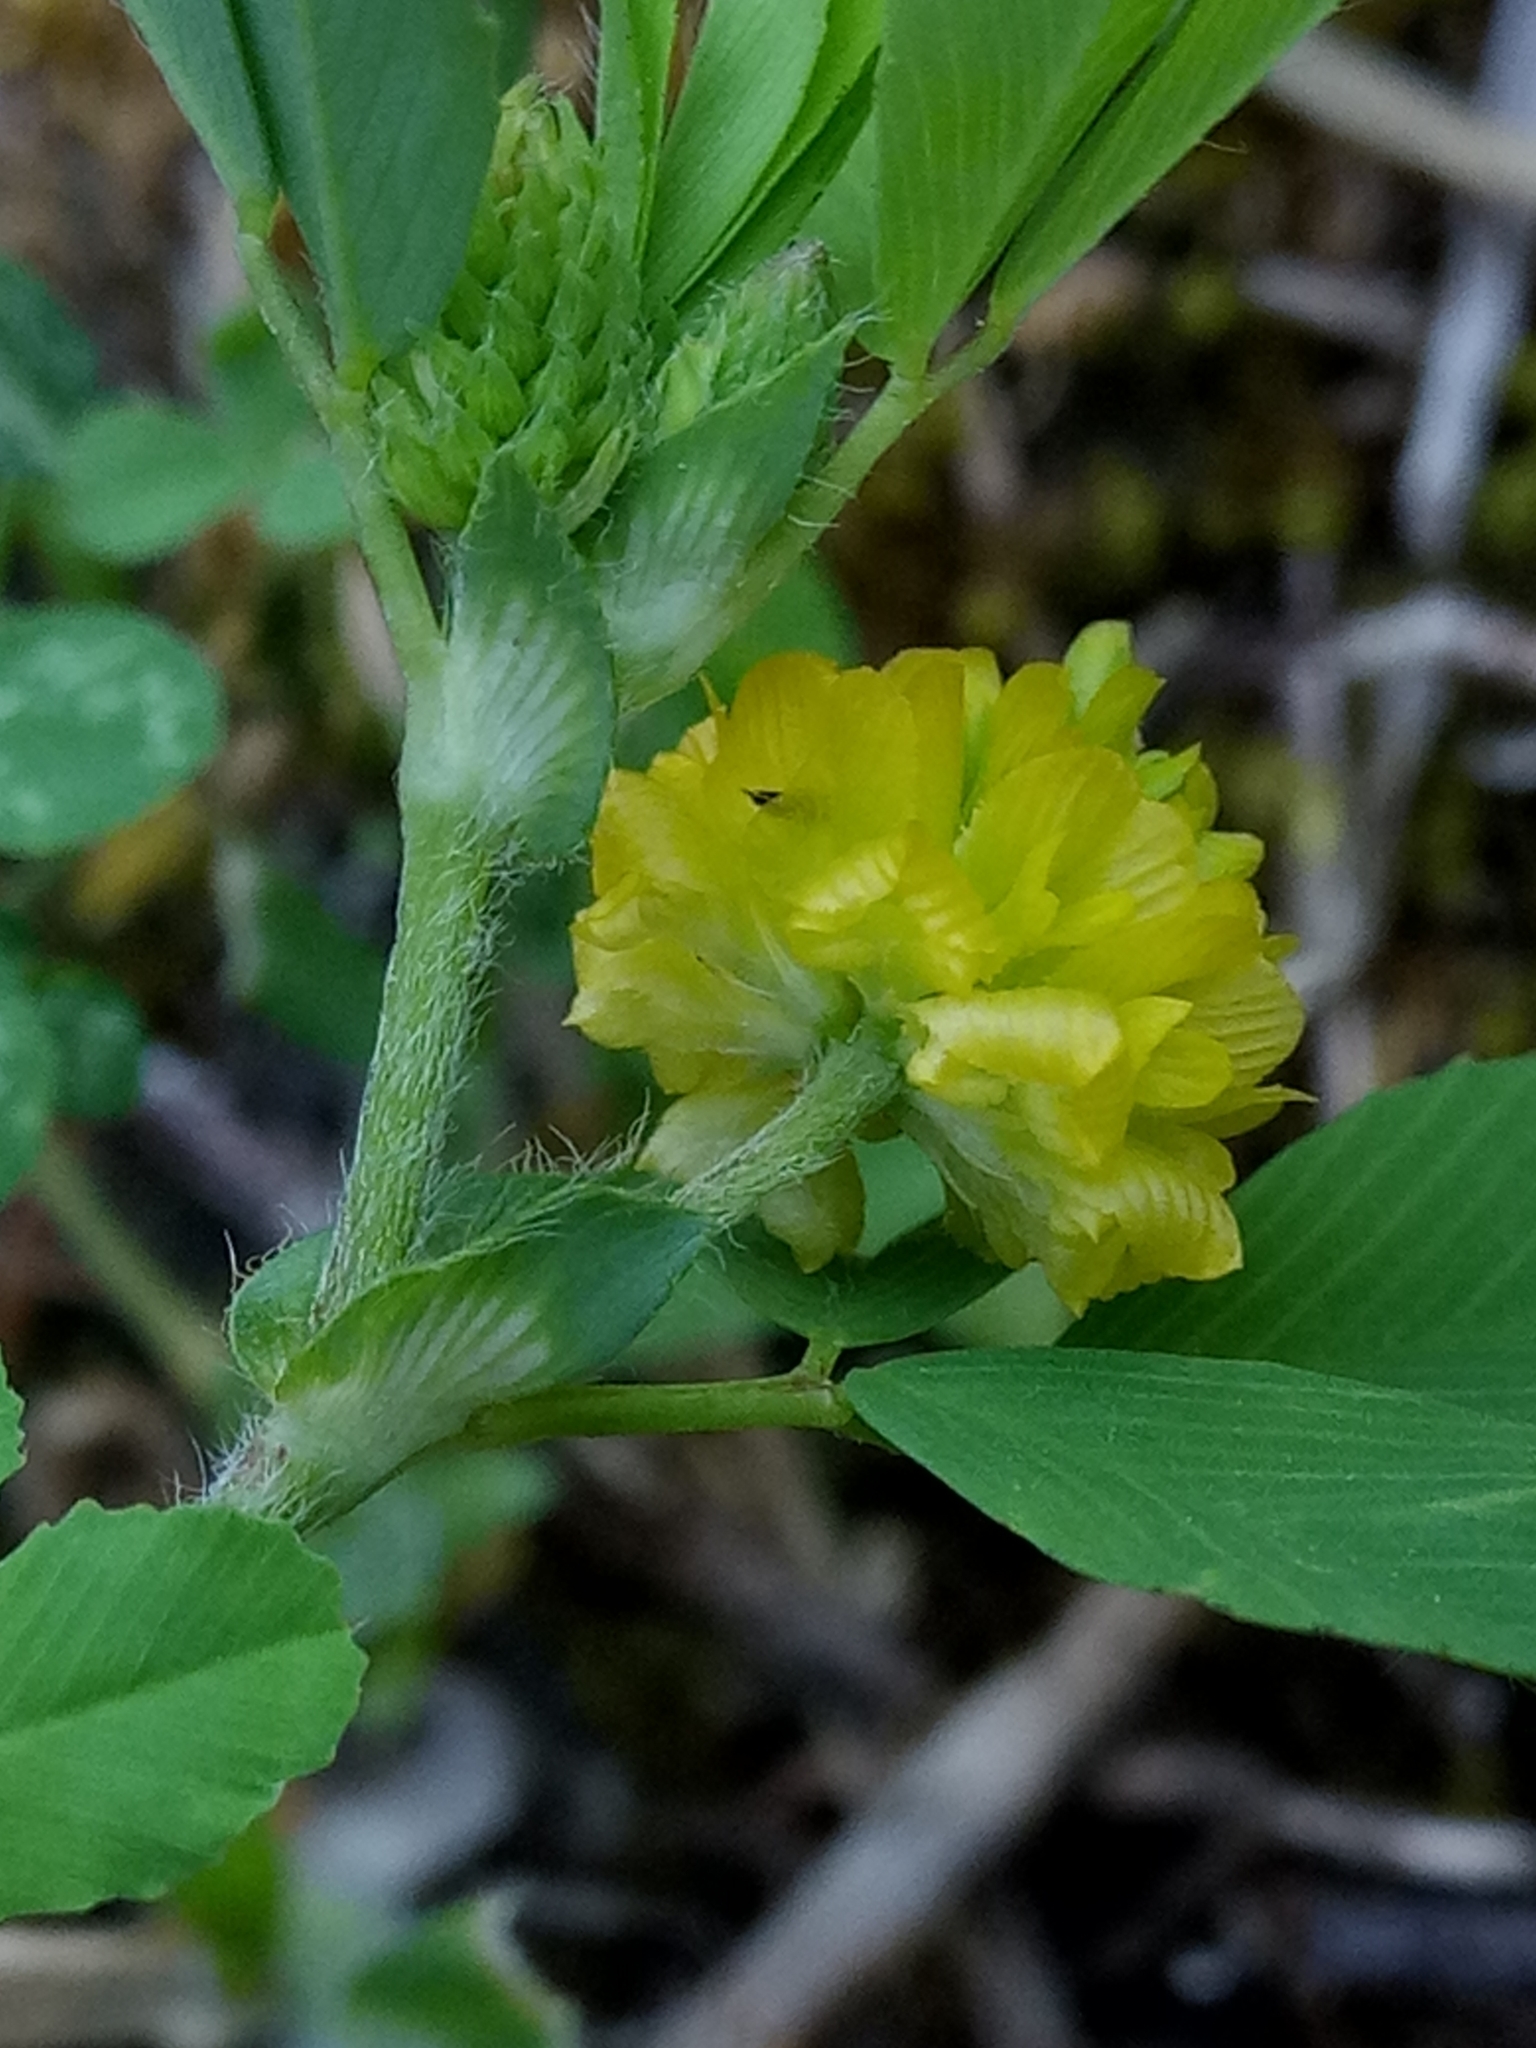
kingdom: Plantae
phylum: Tracheophyta
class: Magnoliopsida
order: Fabales
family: Fabaceae
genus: Trifolium
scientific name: Trifolium campestre
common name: Field clover
